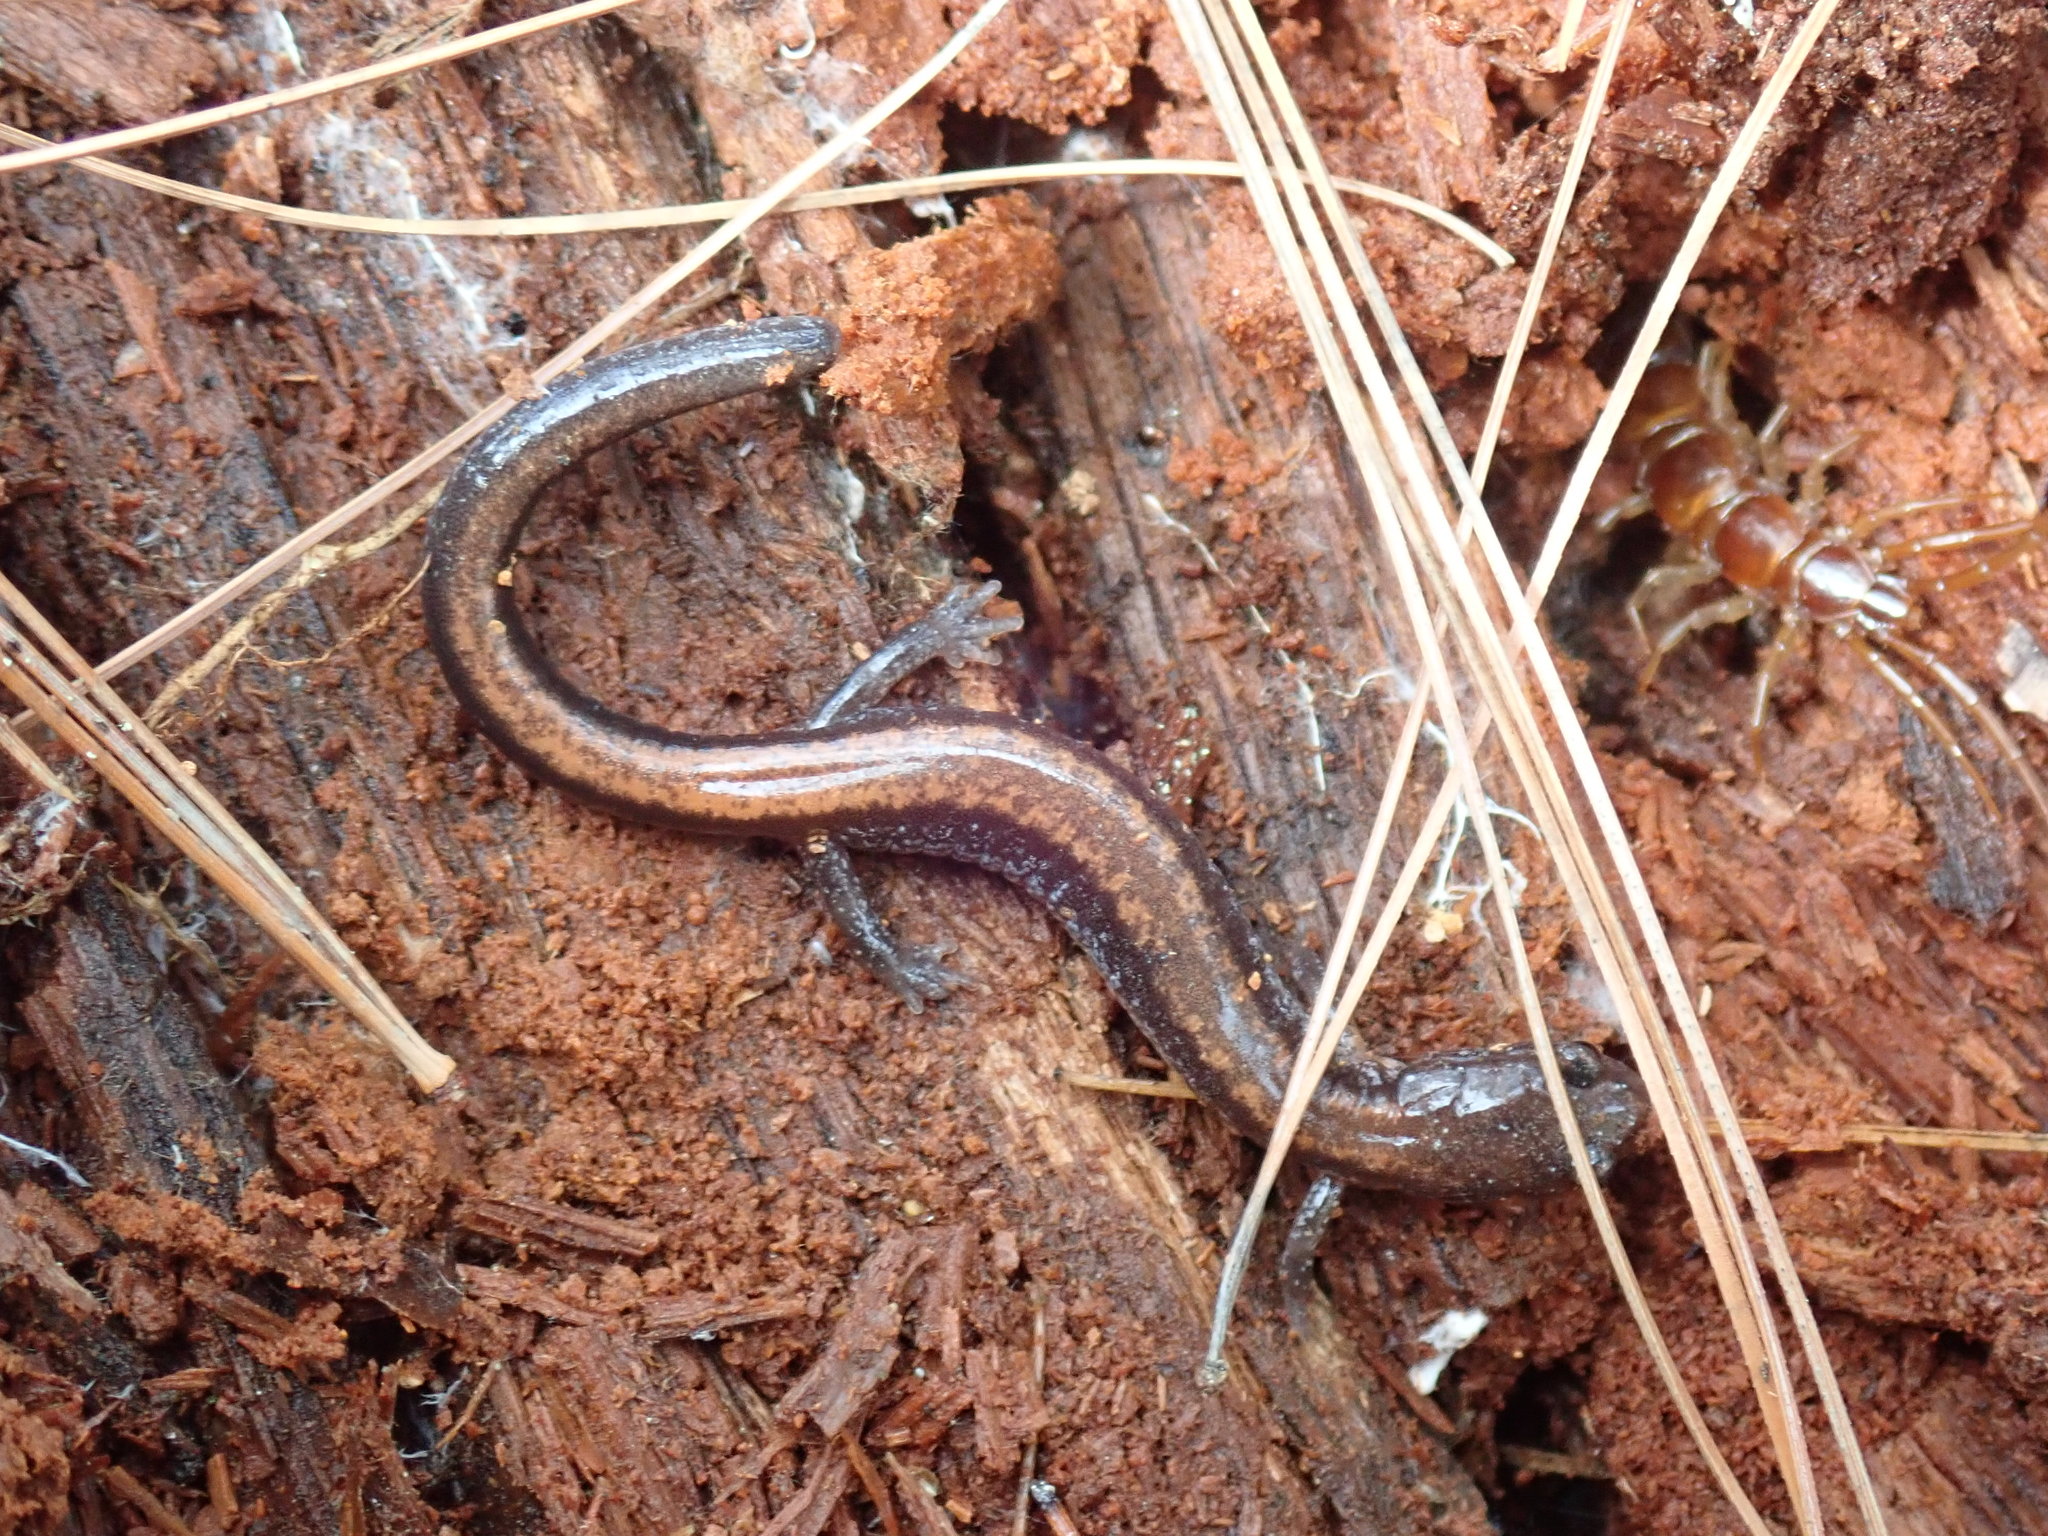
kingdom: Animalia
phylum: Chordata
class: Amphibia
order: Caudata
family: Plethodontidae
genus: Plethodon
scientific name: Plethodon cinereus
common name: Redback salamander
